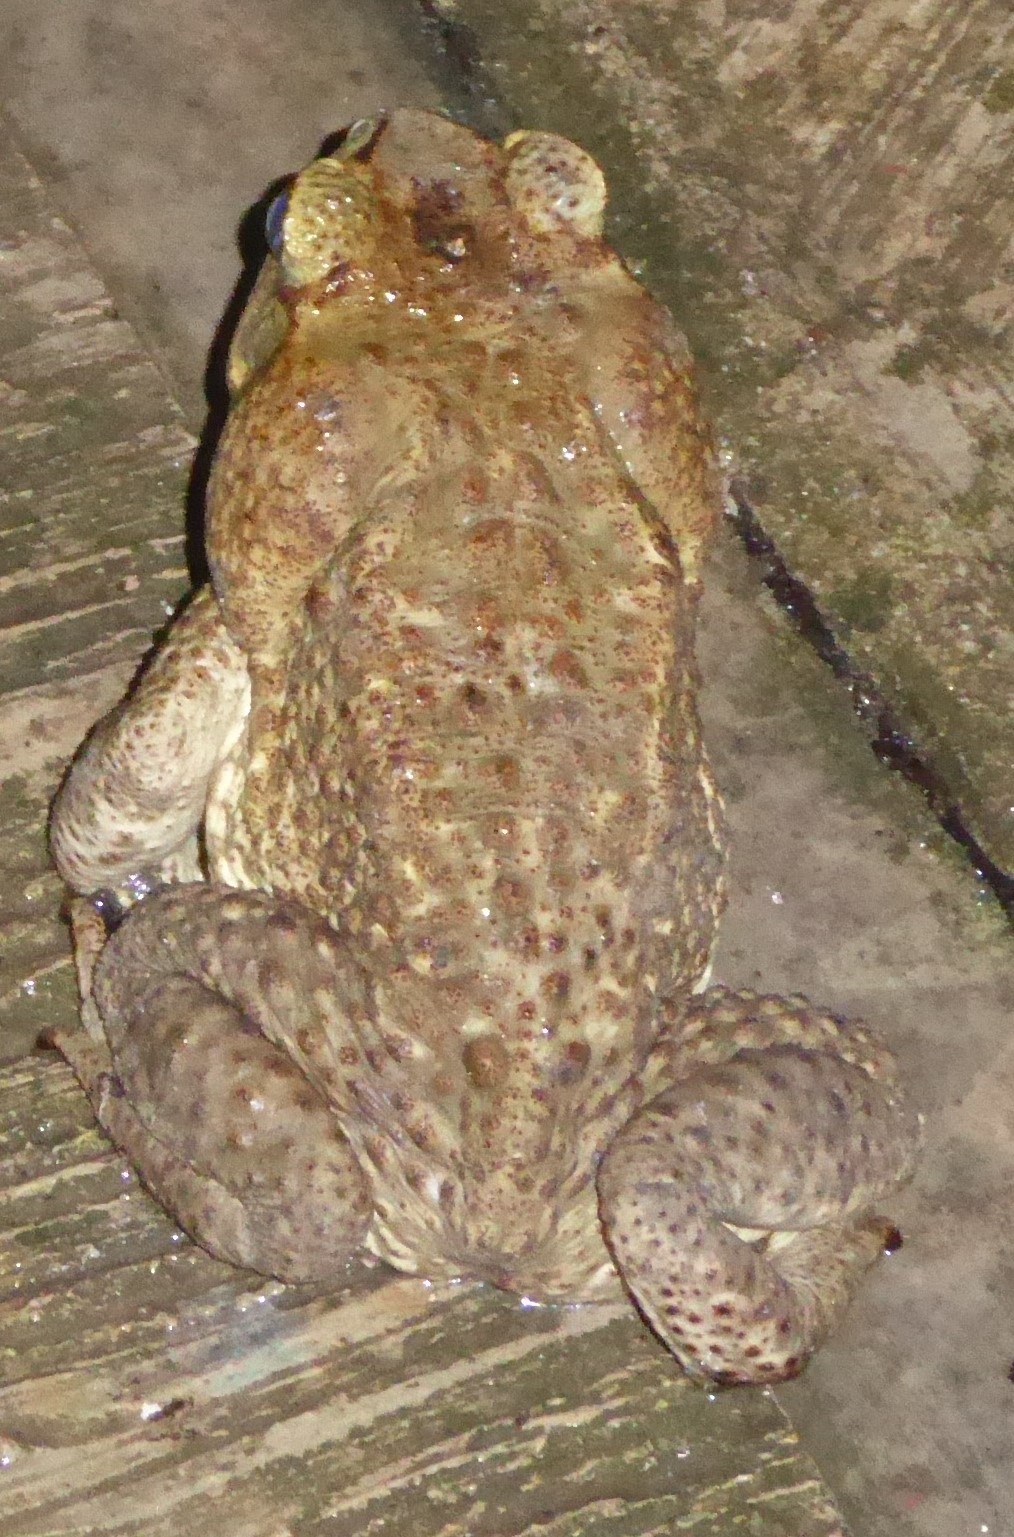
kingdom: Animalia
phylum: Chordata
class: Amphibia
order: Anura
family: Bufonidae
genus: Rhinella
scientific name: Rhinella horribilis
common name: Mesoamerican cane toad
